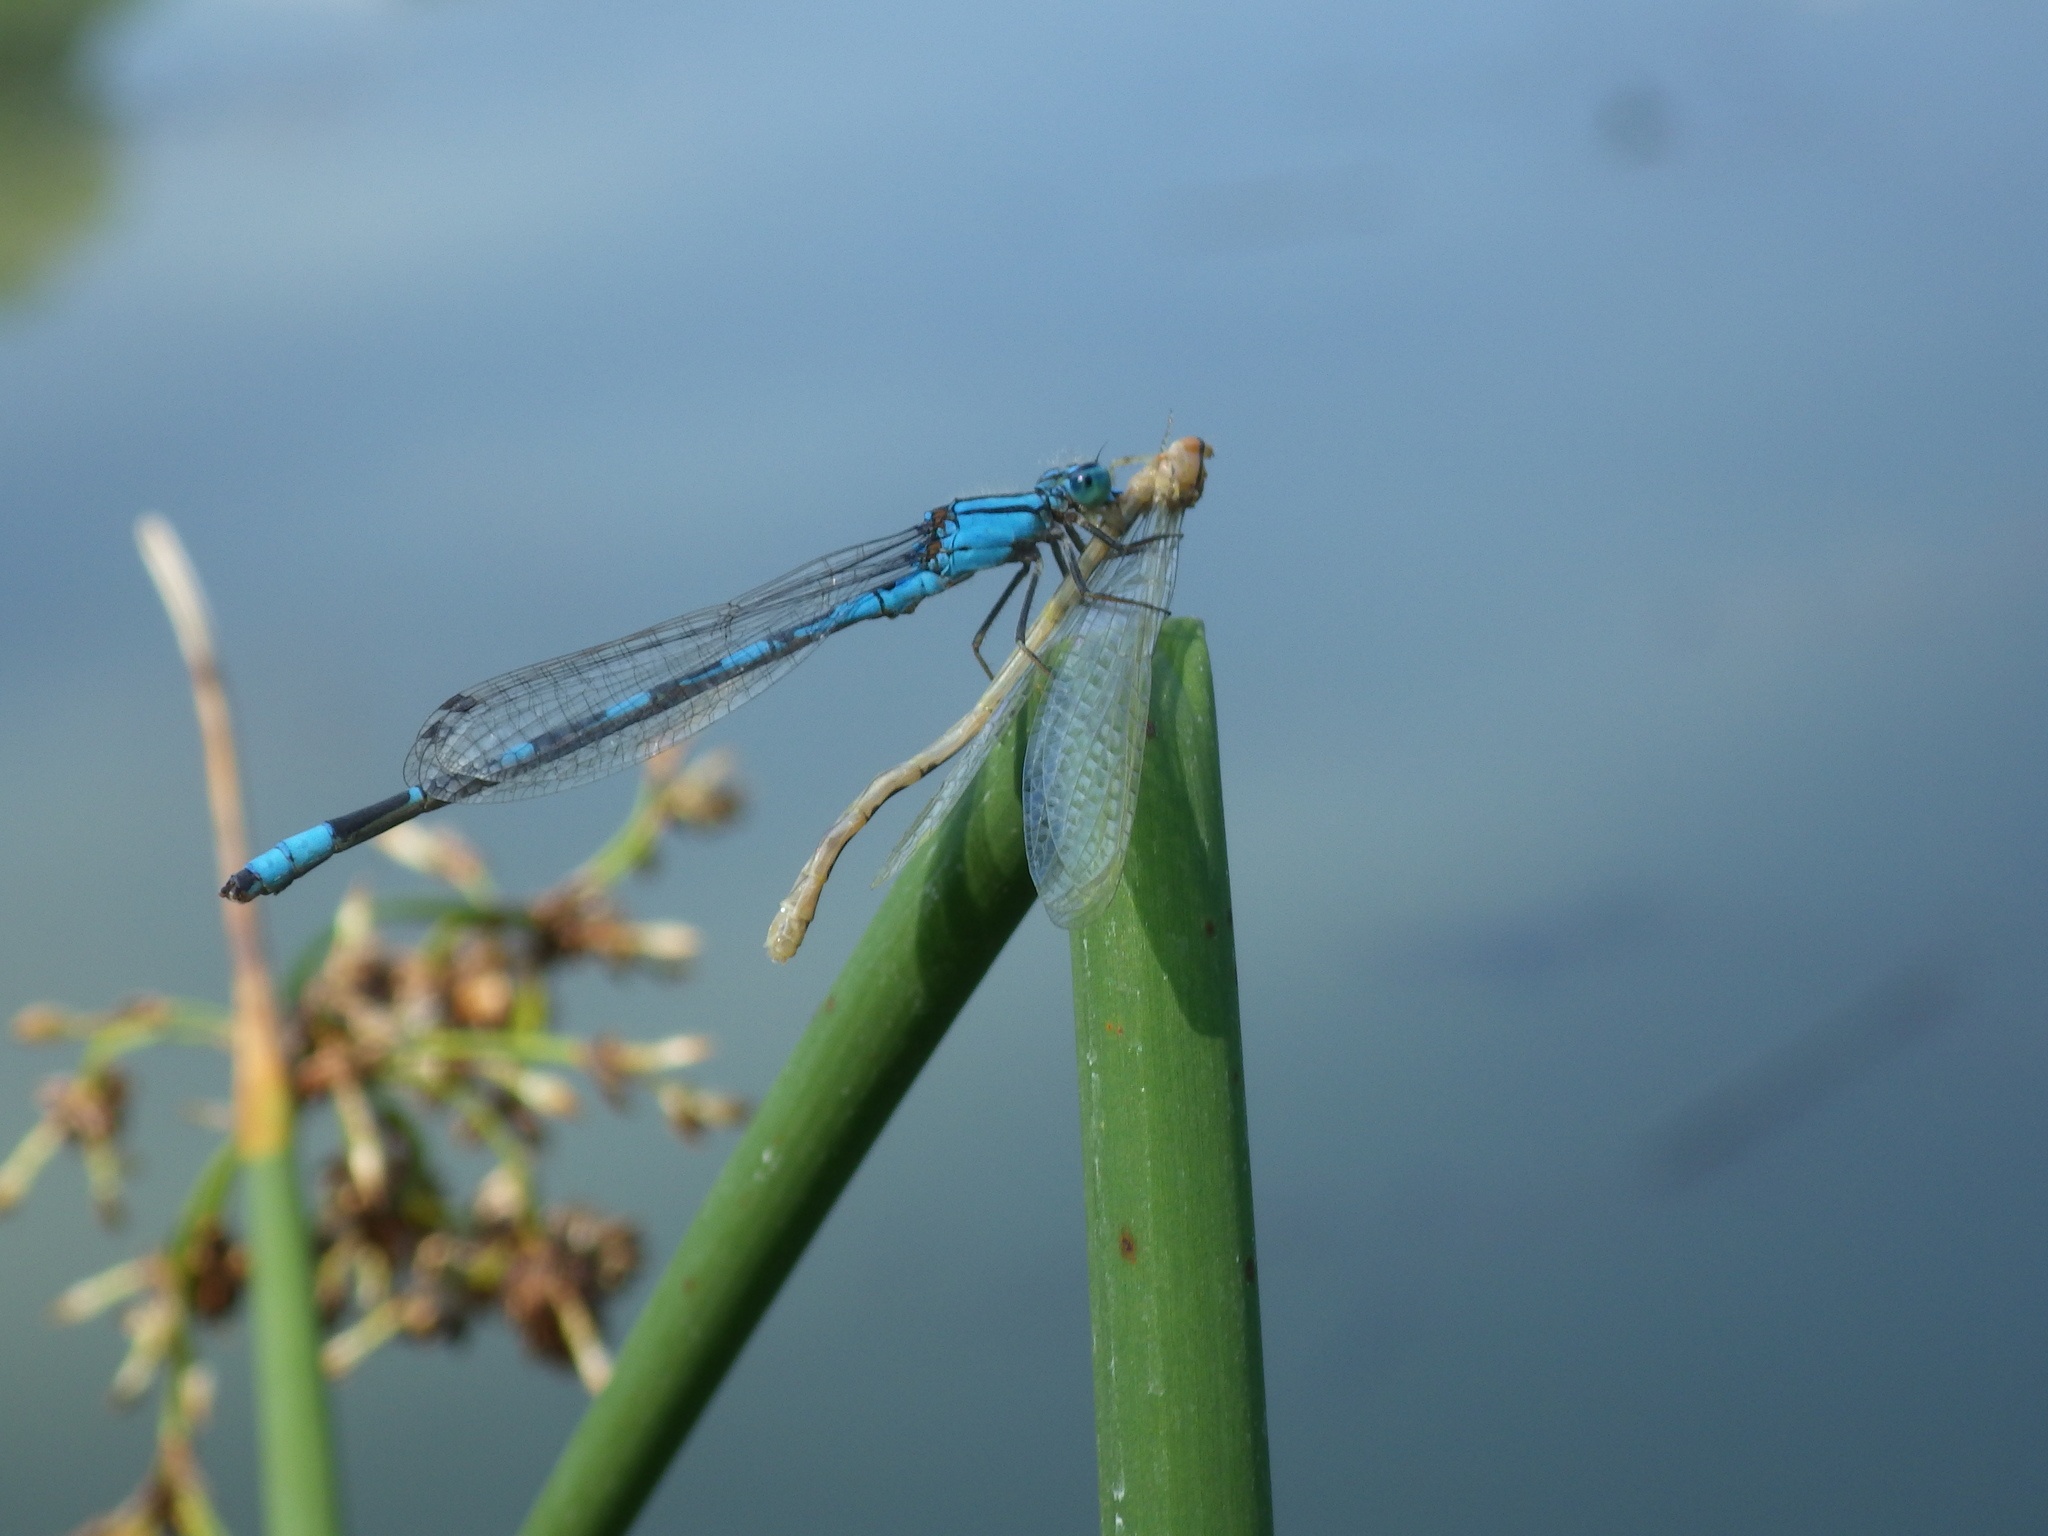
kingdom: Animalia
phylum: Arthropoda
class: Insecta
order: Odonata
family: Coenagrionidae
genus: Enallagma
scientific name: Enallagma carunculatum
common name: Tule bluet
